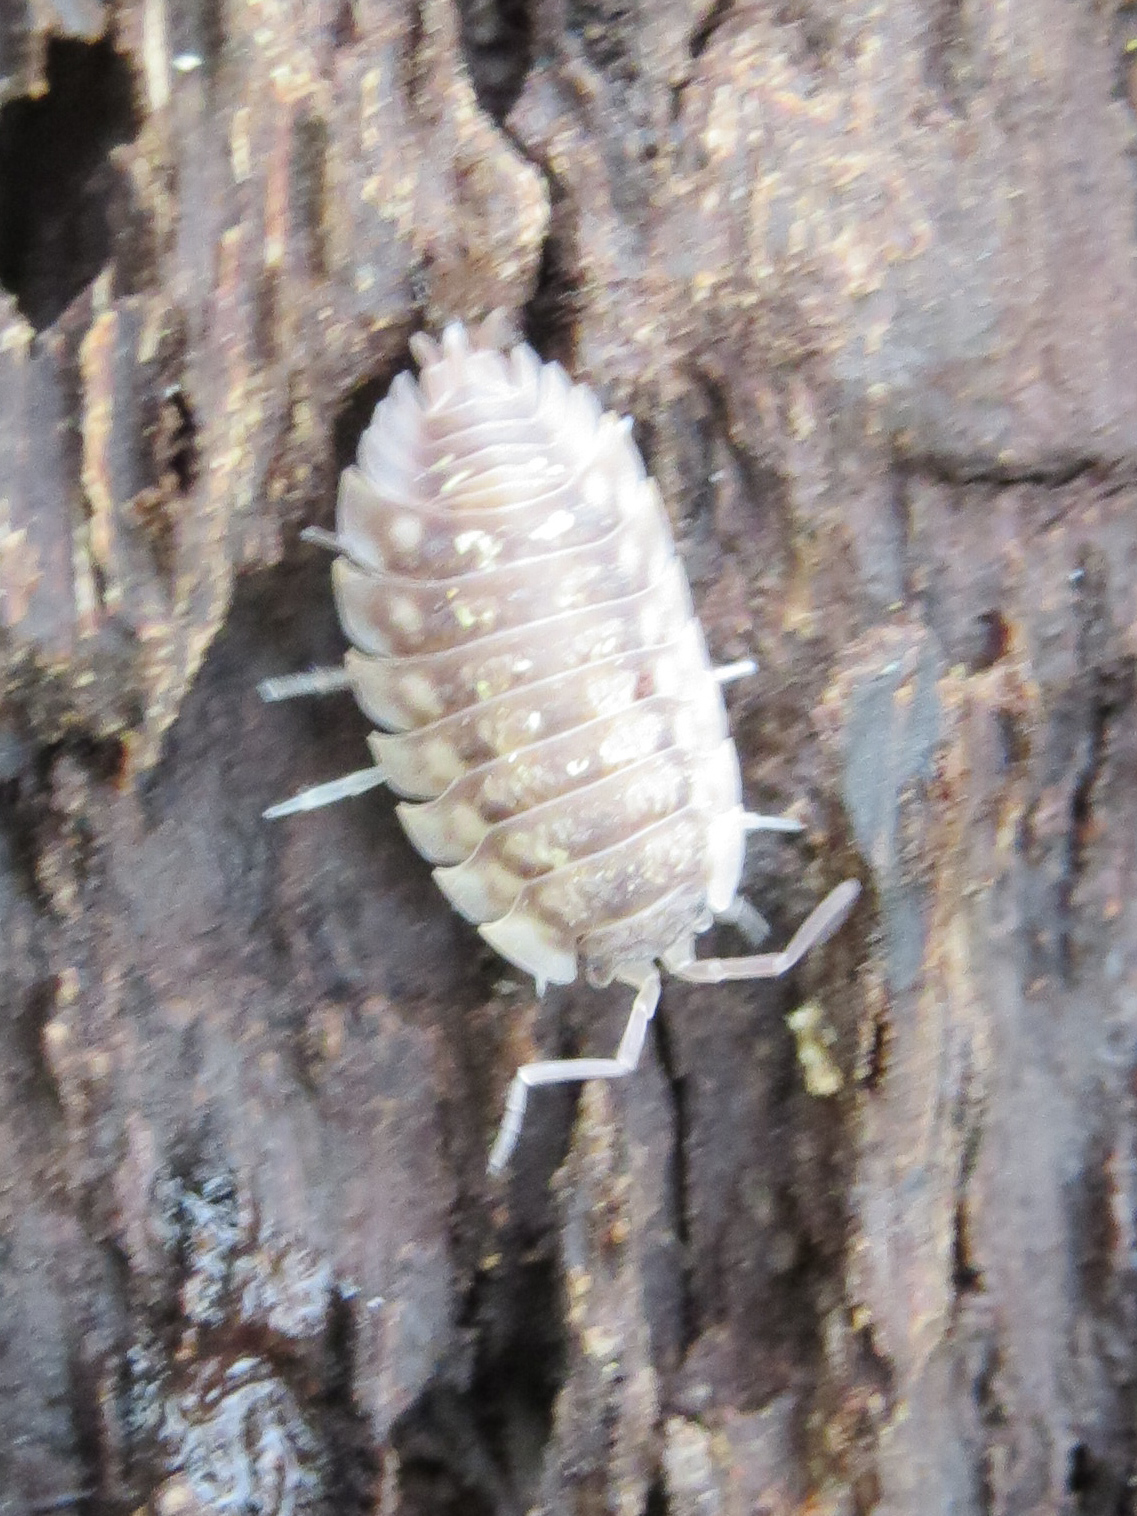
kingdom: Animalia
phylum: Arthropoda
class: Malacostraca
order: Isopoda
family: Oniscidae
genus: Oniscus
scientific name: Oniscus asellus
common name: Common shiny woodlouse
